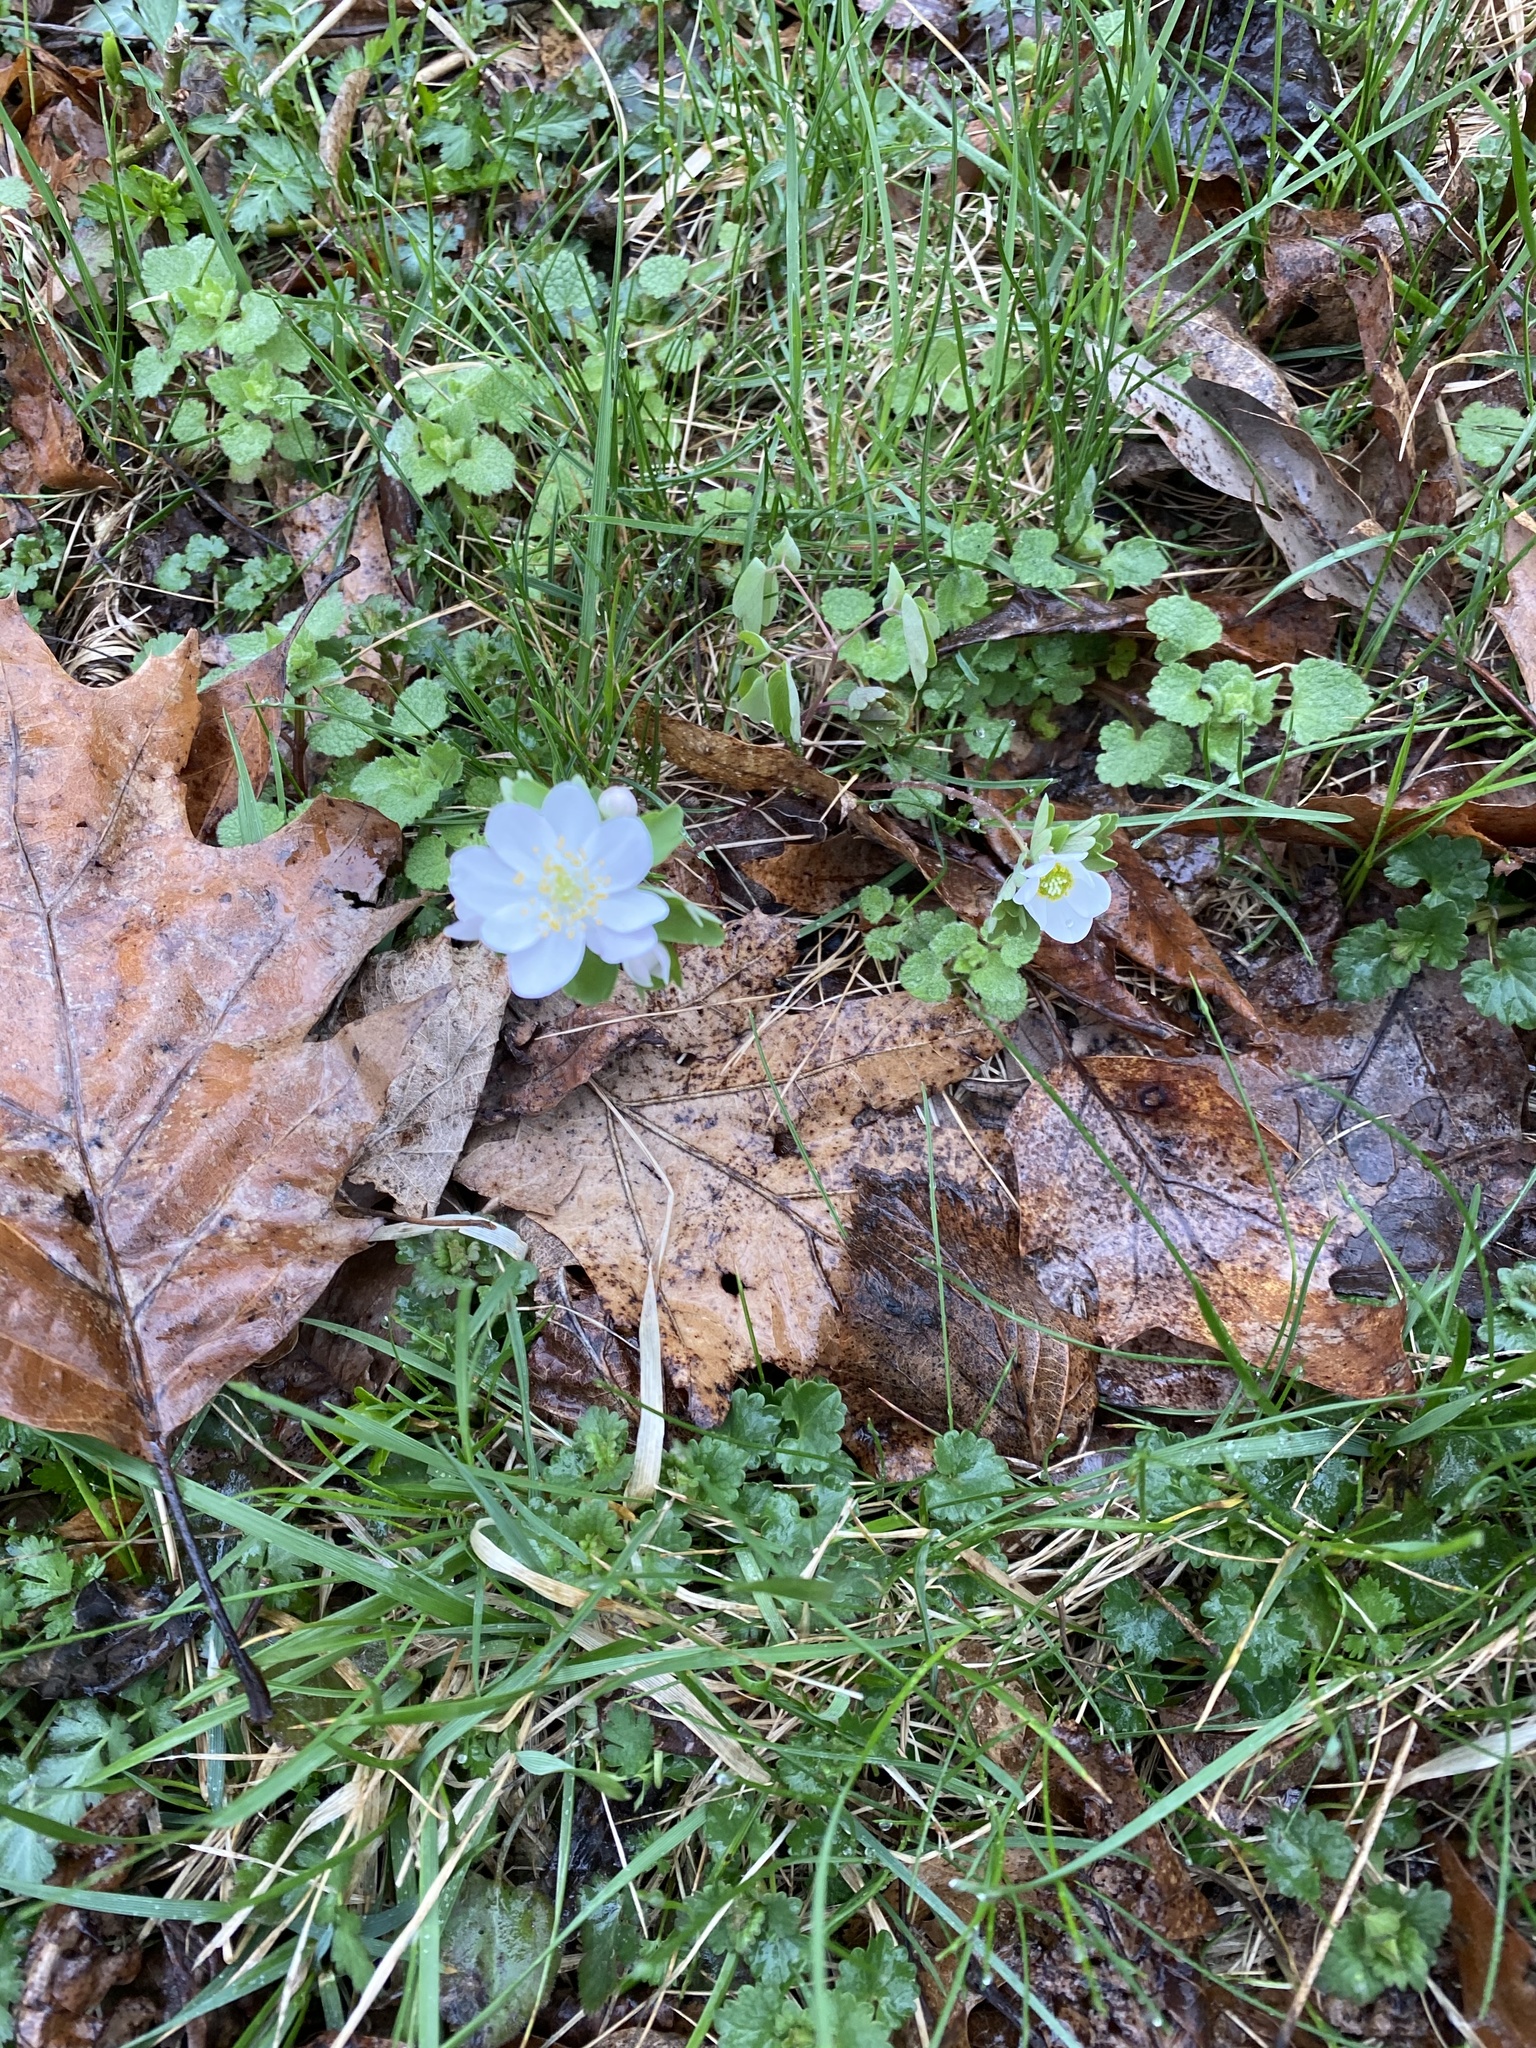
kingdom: Plantae
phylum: Tracheophyta
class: Magnoliopsida
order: Ranunculales
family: Ranunculaceae
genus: Thalictrum
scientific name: Thalictrum thalictroides
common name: Rue-anemone
